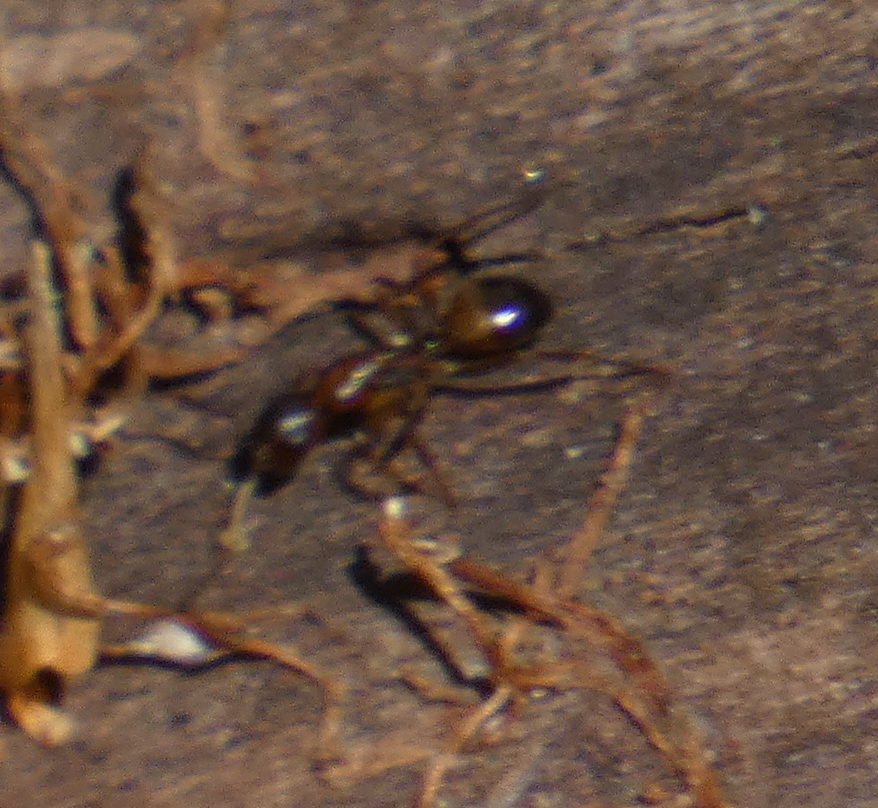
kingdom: Animalia
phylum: Arthropoda
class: Insecta
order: Hymenoptera
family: Formicidae
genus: Camponotus
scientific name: Camponotus subbarbatus
